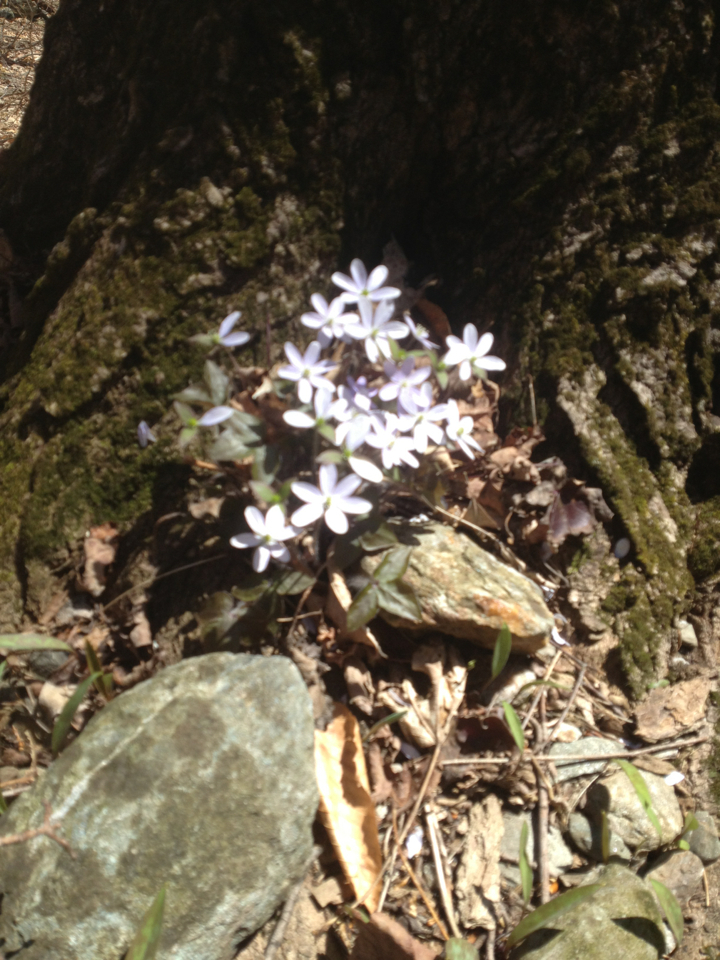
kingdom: Plantae
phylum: Tracheophyta
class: Magnoliopsida
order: Ranunculales
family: Ranunculaceae
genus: Hepatica
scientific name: Hepatica acutiloba
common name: Sharp-lobed hepatica
